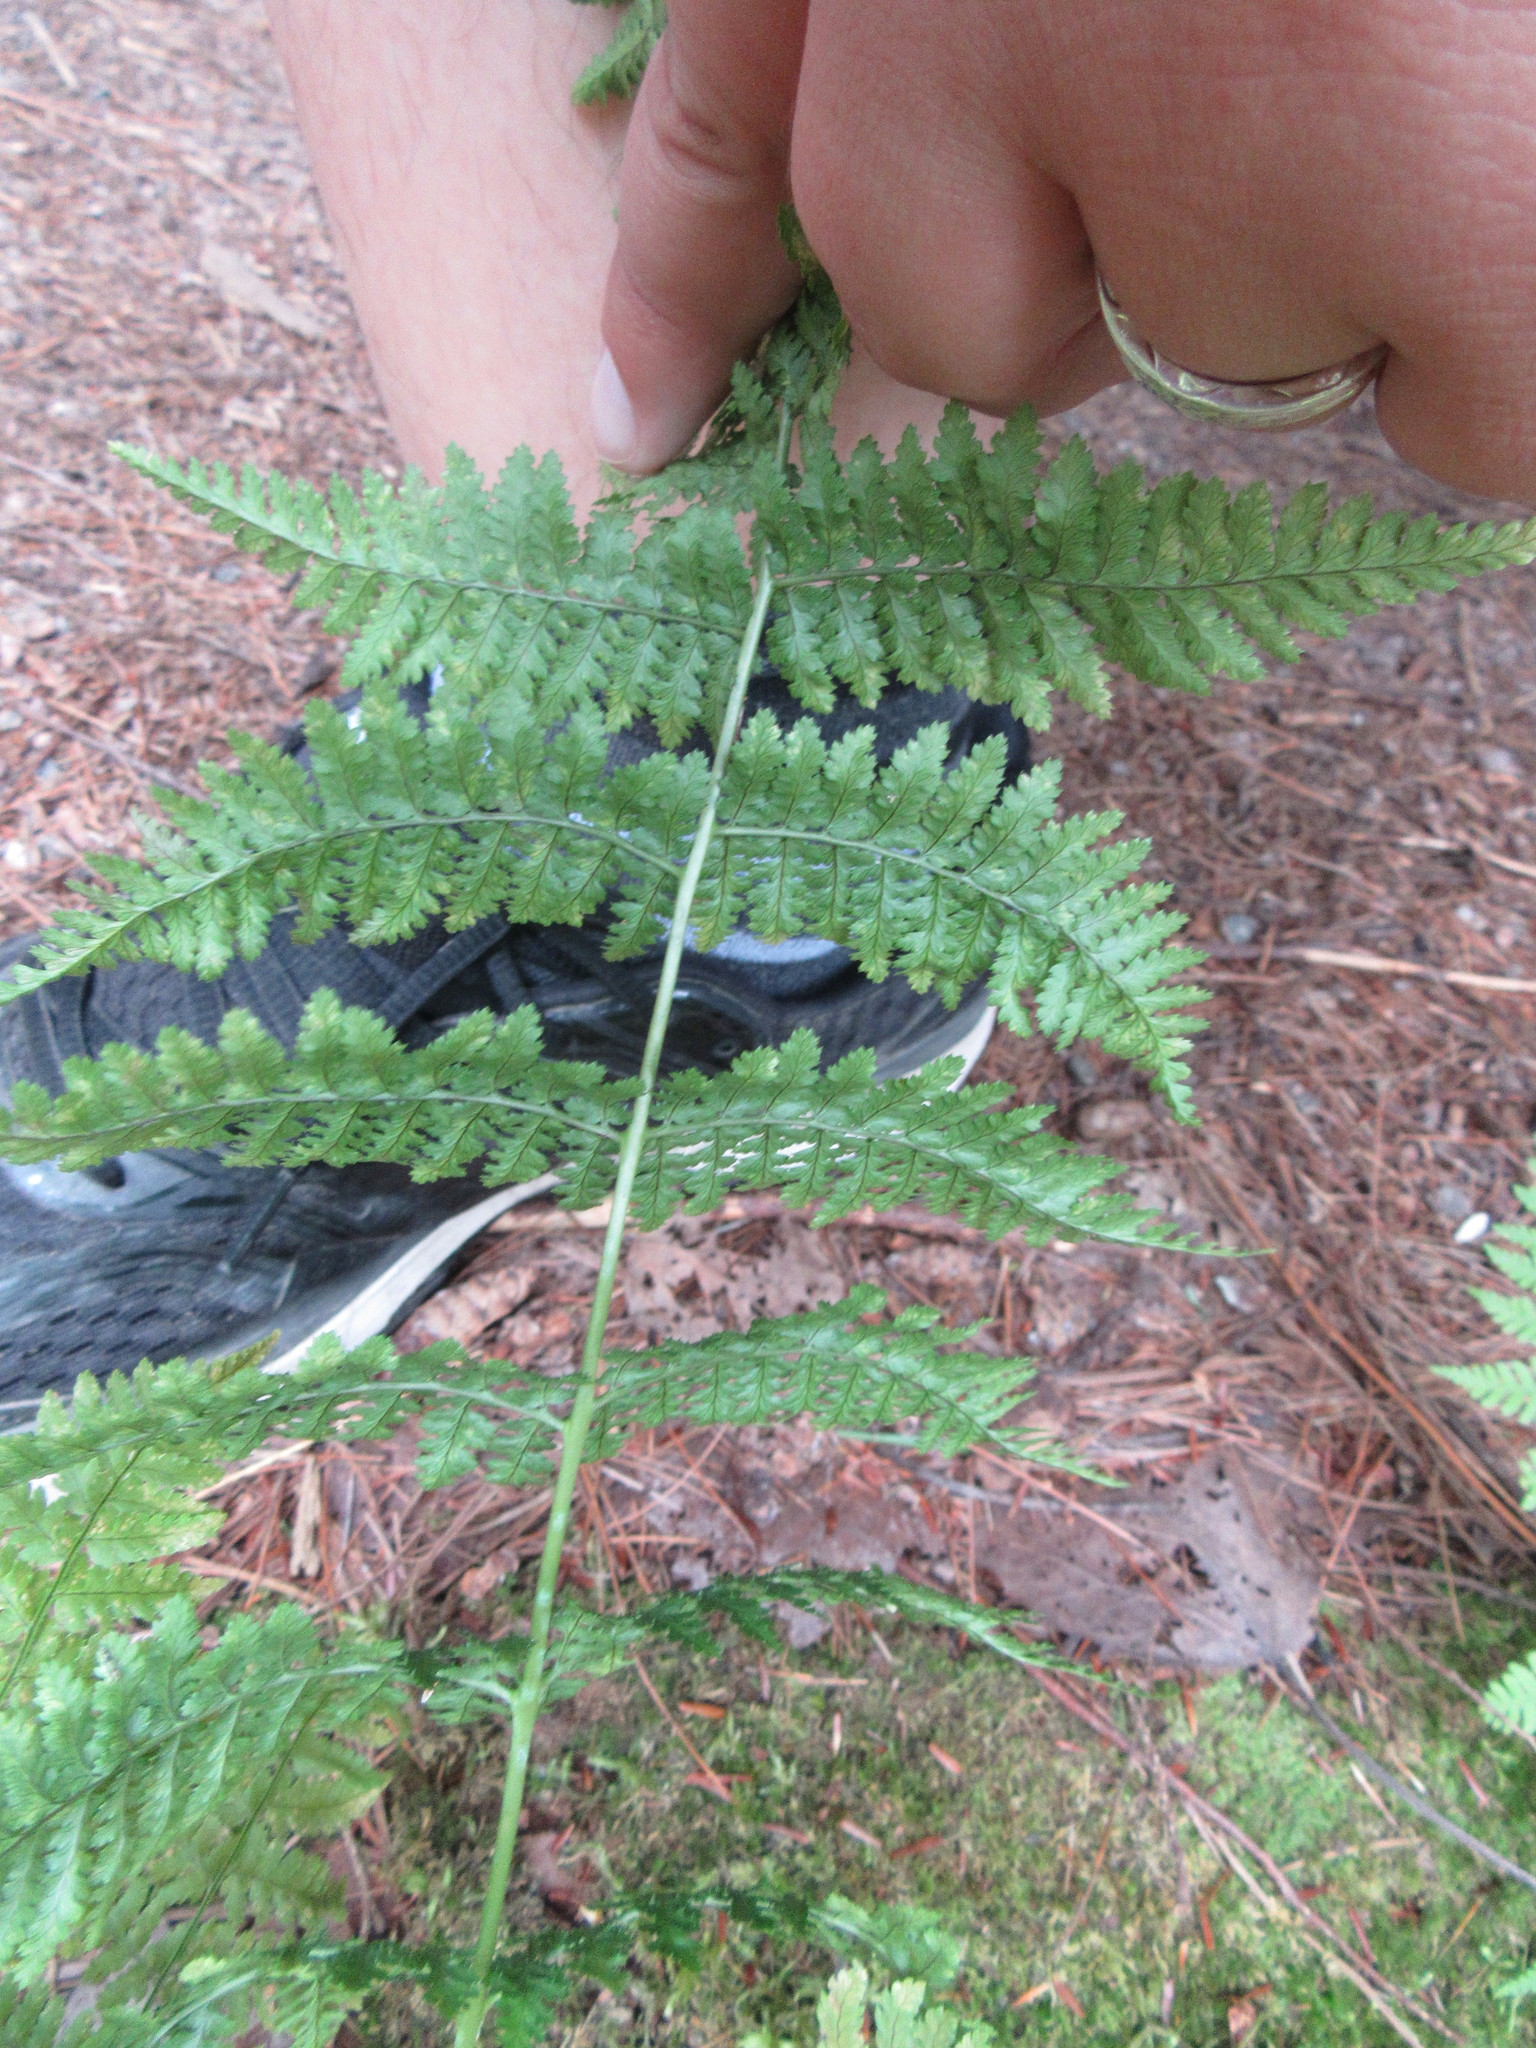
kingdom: Plantae
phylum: Tracheophyta
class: Polypodiopsida
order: Polypodiales
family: Dryopteridaceae
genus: Dryopteris
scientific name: Dryopteris intermedia
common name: Evergreen wood fern
